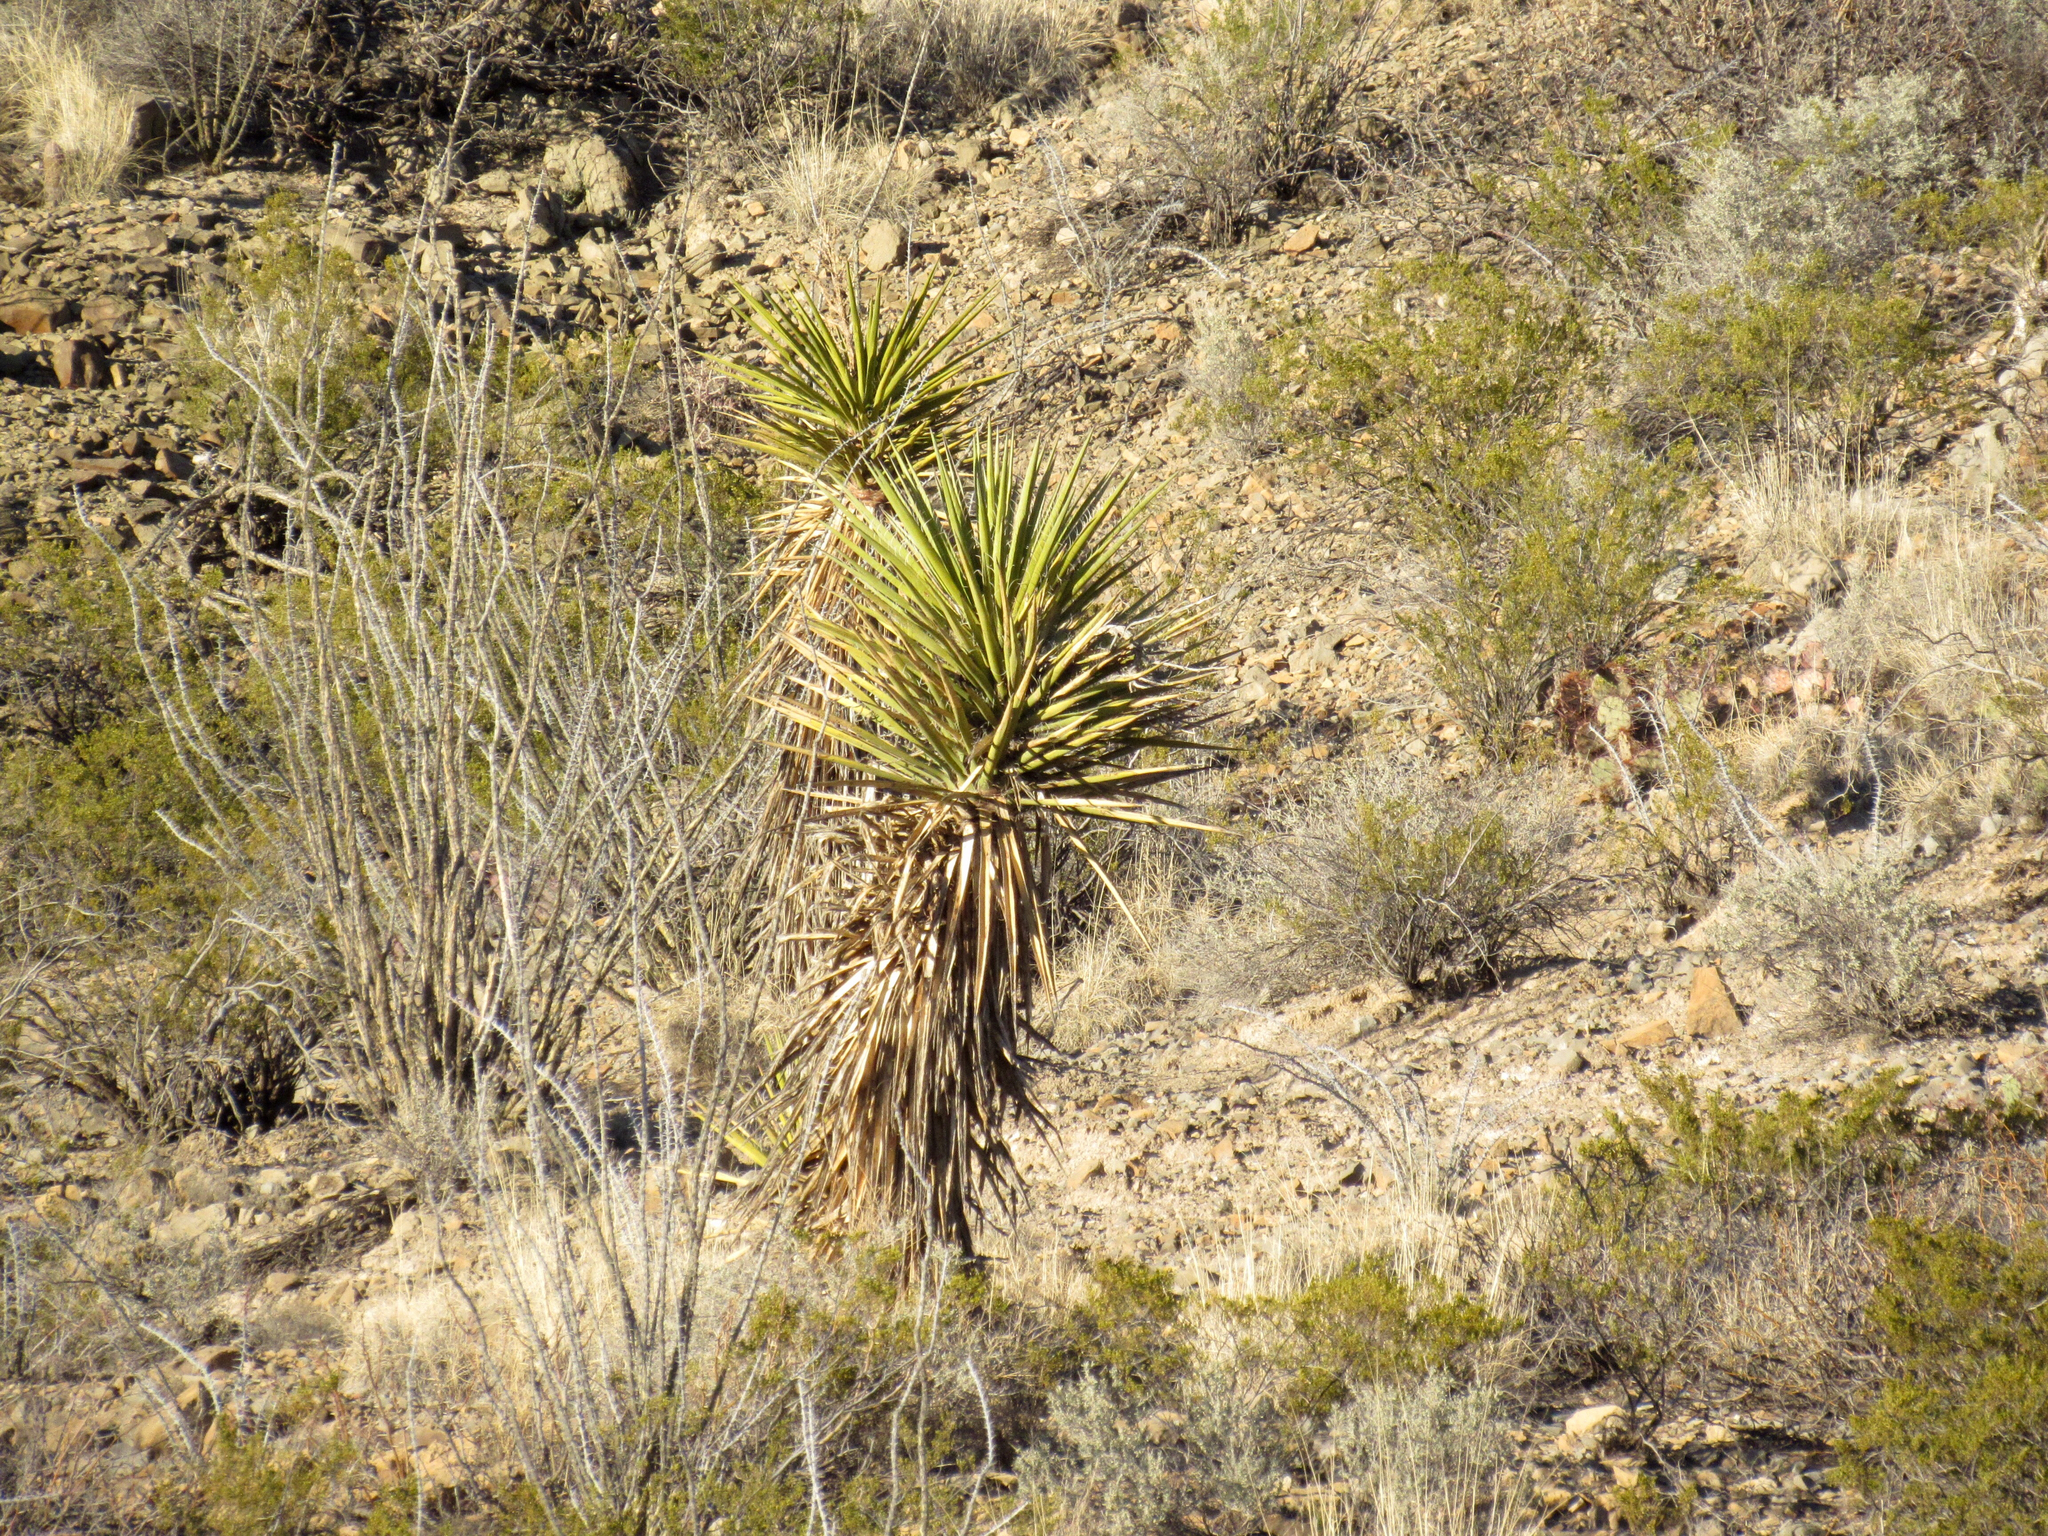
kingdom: Plantae
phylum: Tracheophyta
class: Liliopsida
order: Asparagales
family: Asparagaceae
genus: Yucca
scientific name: Yucca treculiana
